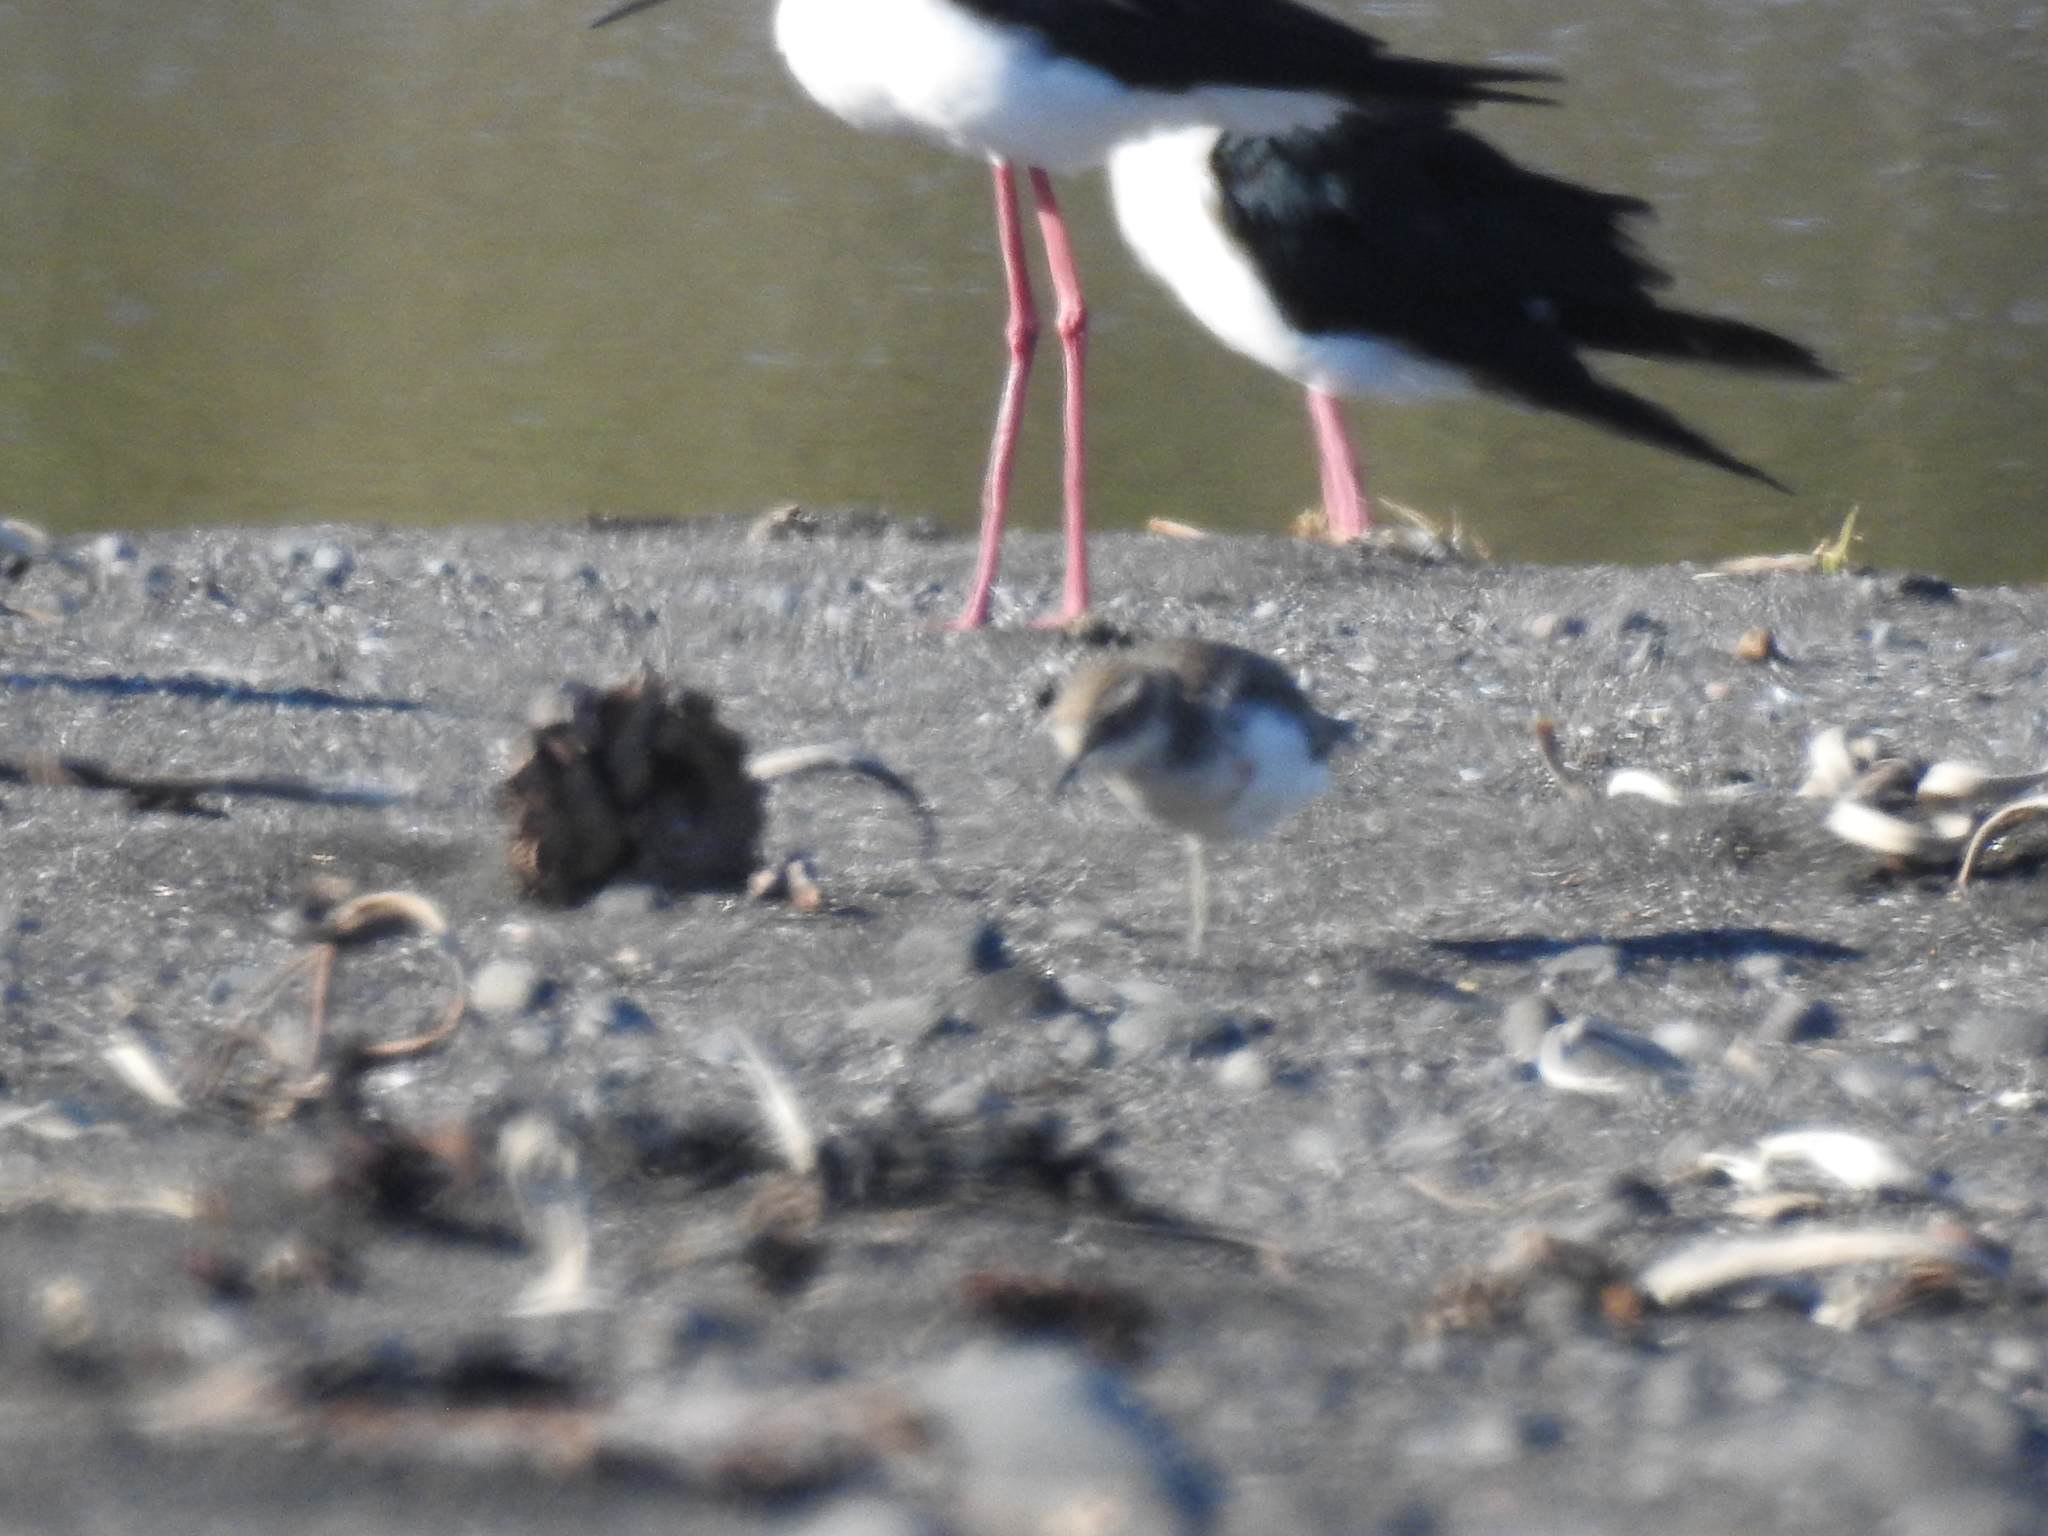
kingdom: Animalia
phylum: Chordata
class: Aves
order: Charadriiformes
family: Charadriidae
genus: Anarhynchus
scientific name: Anarhynchus
